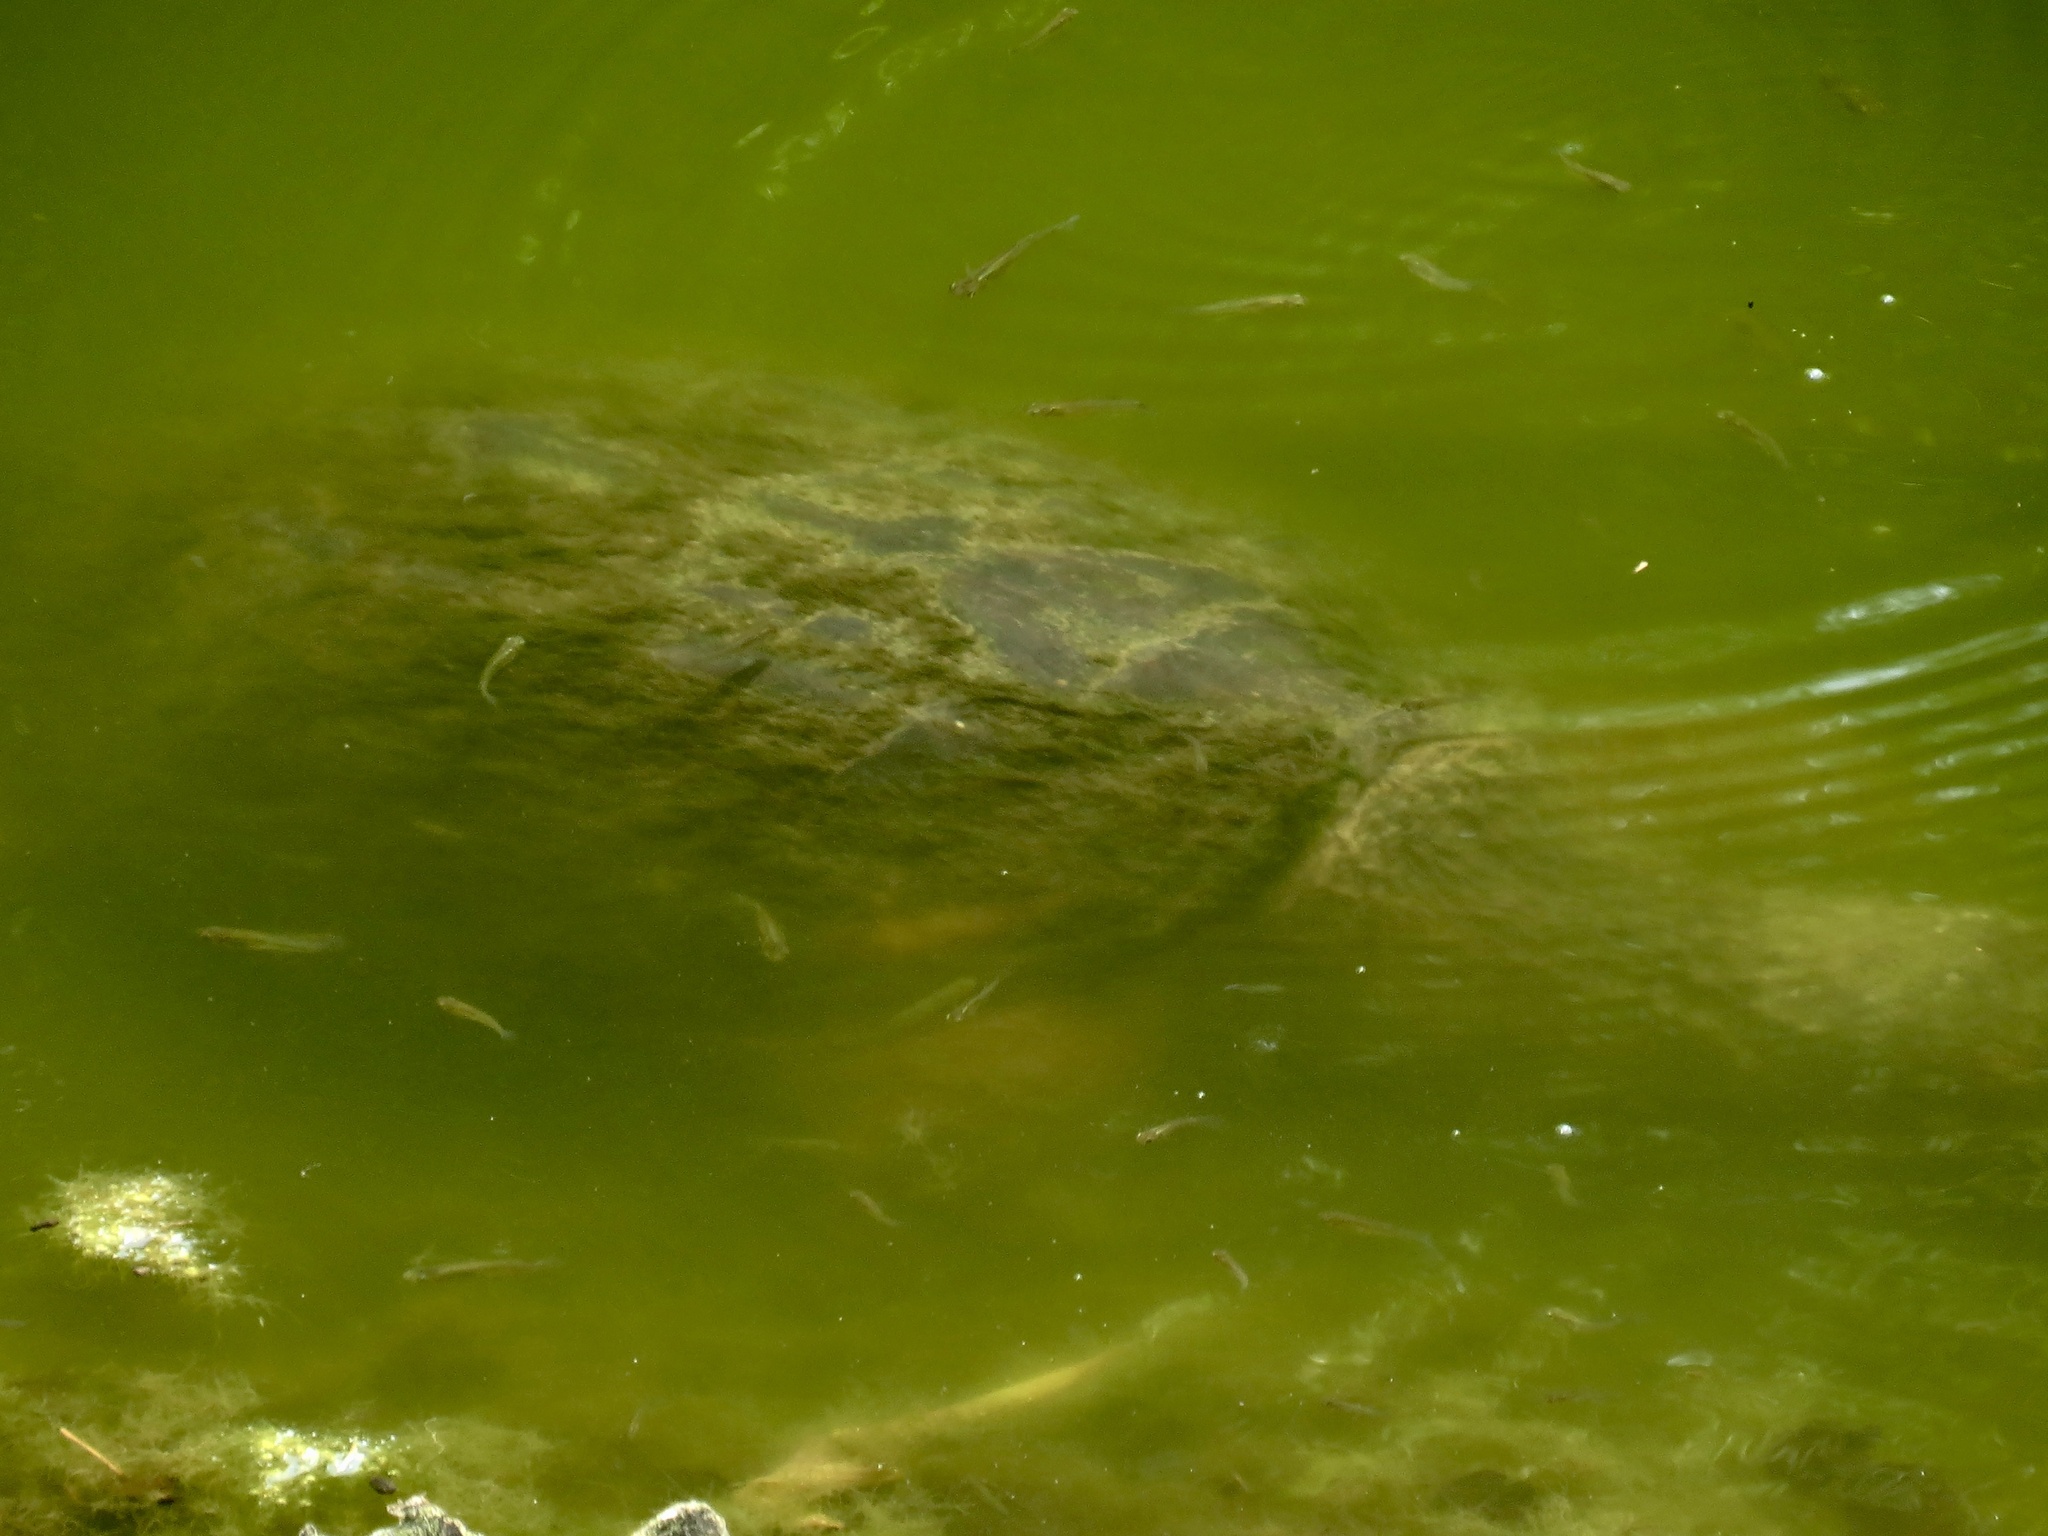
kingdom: Animalia
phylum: Chordata
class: Testudines
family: Chelydridae
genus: Chelydra
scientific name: Chelydra serpentina
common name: Common snapping turtle
